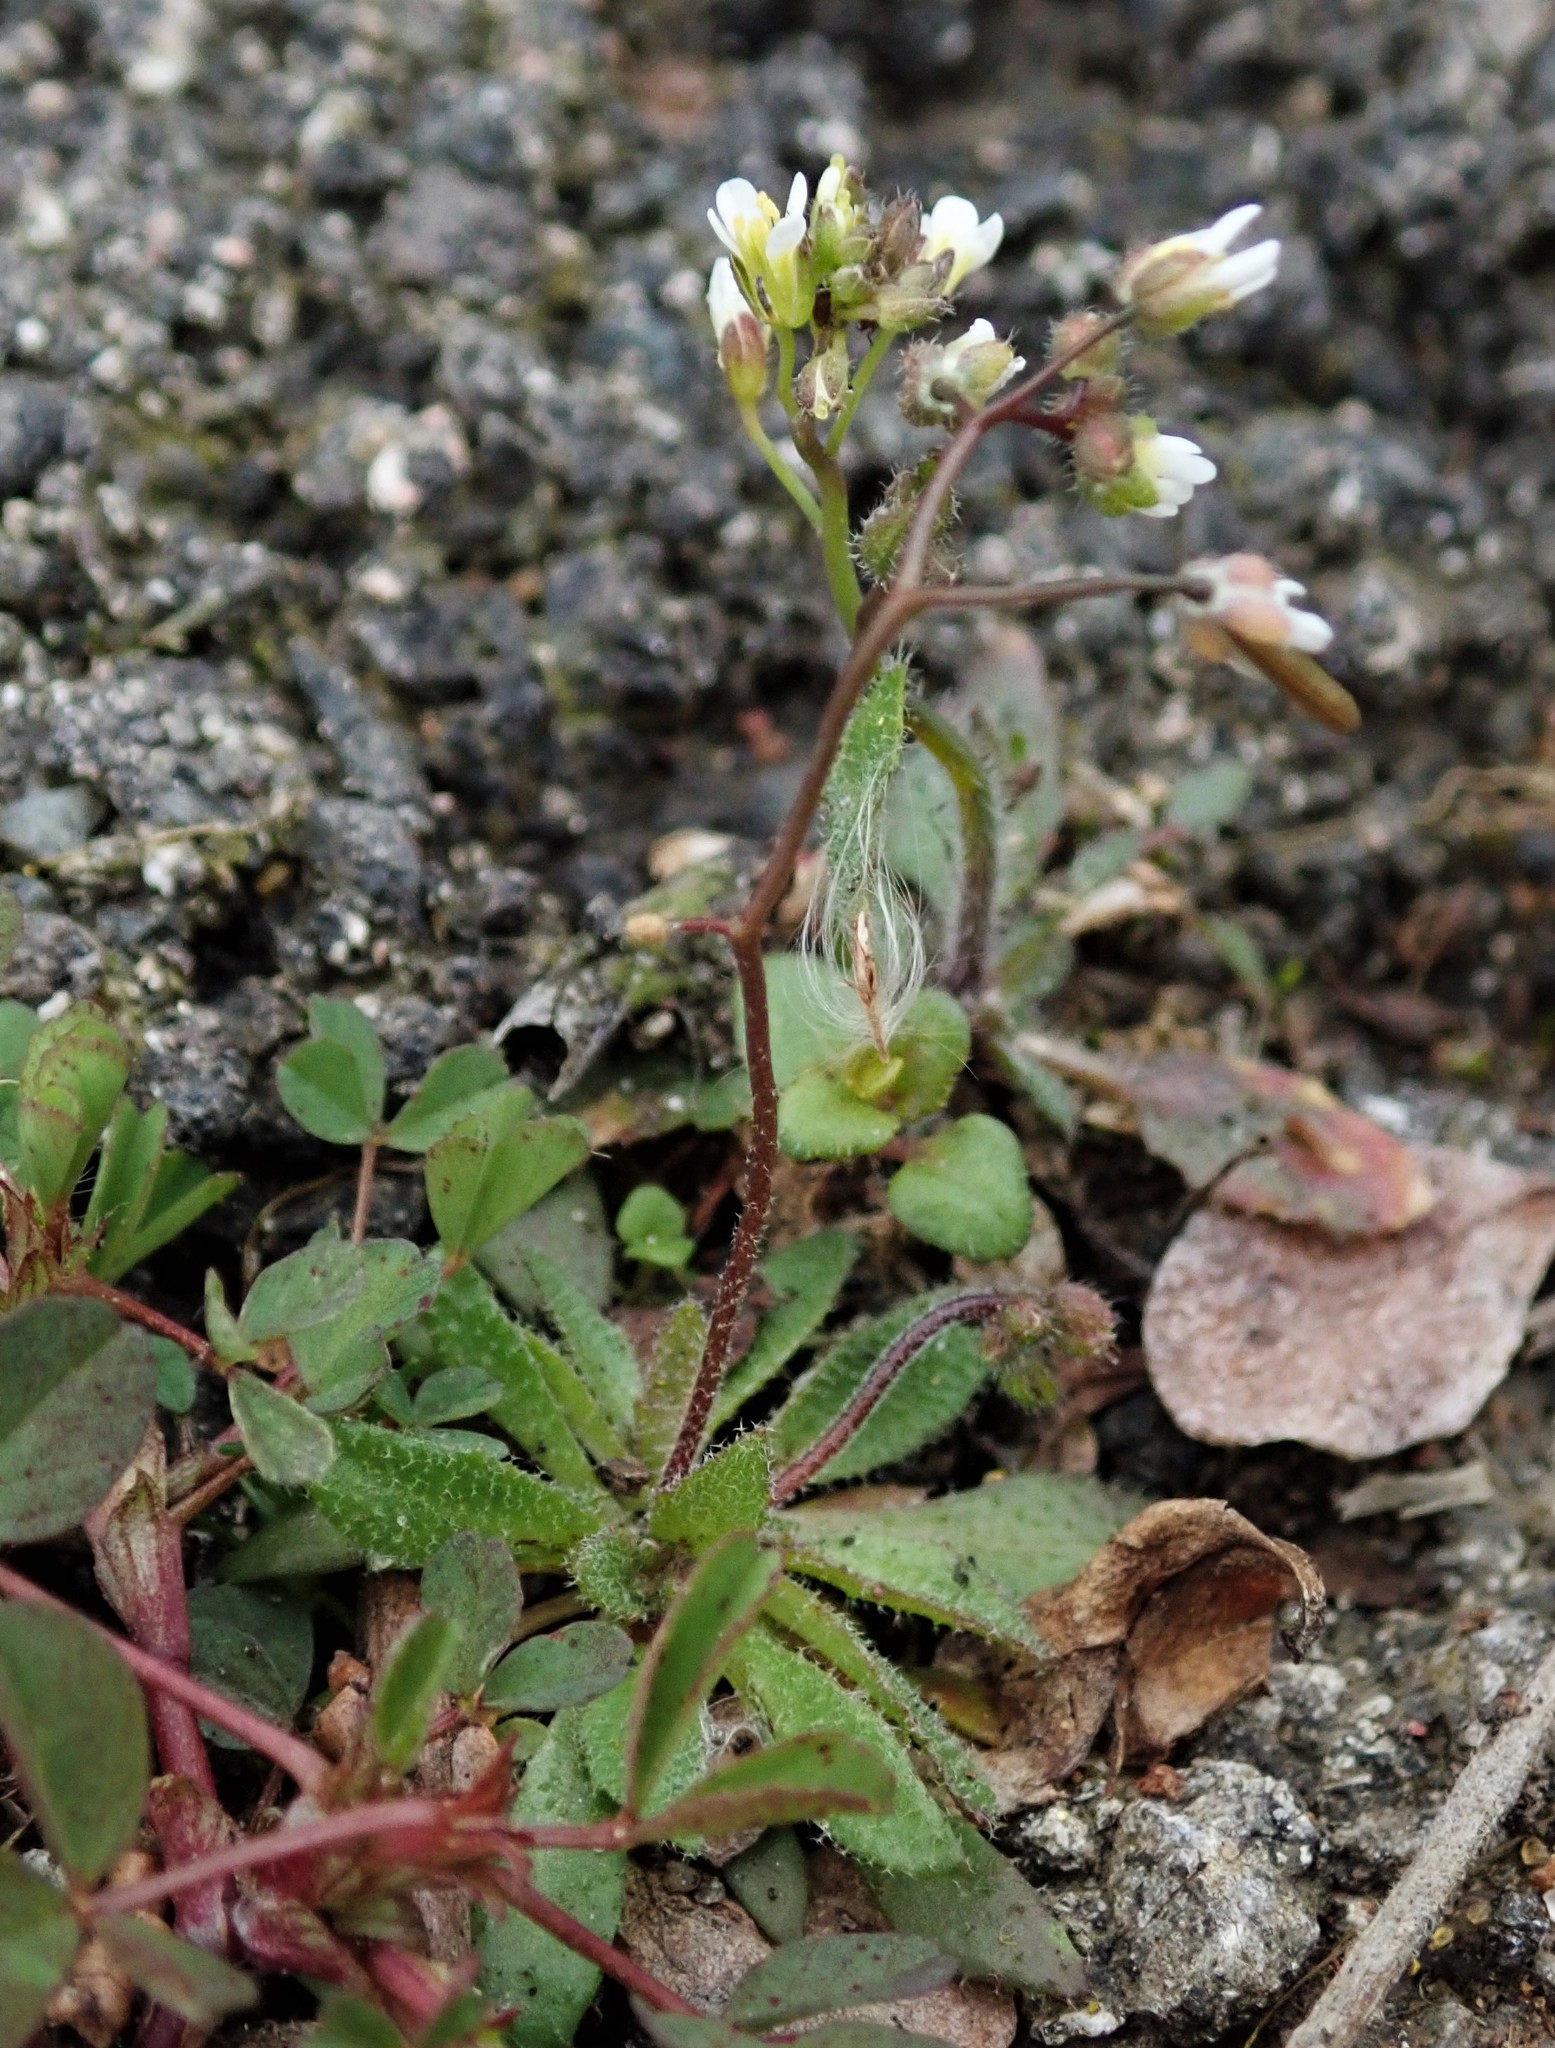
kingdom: Plantae
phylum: Tracheophyta
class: Magnoliopsida
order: Brassicales
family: Brassicaceae
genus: Draba
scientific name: Draba verna
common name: Spring draba
